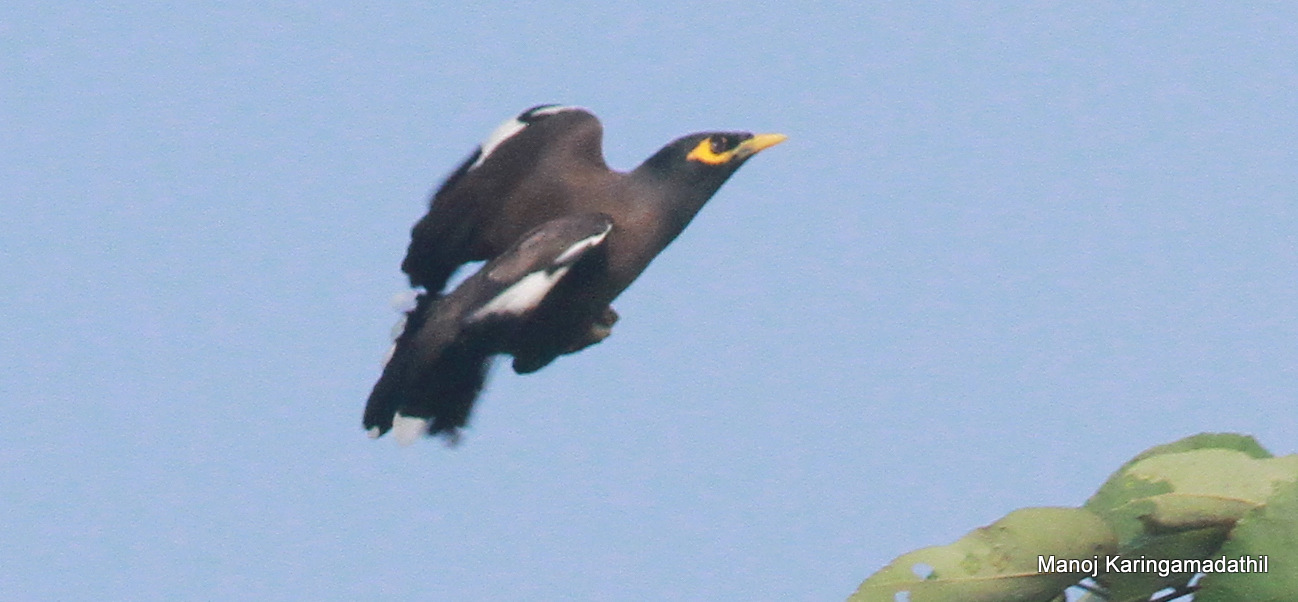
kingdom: Animalia
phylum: Chordata
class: Aves
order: Passeriformes
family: Sturnidae
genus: Acridotheres
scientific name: Acridotheres tristis
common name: Common myna
